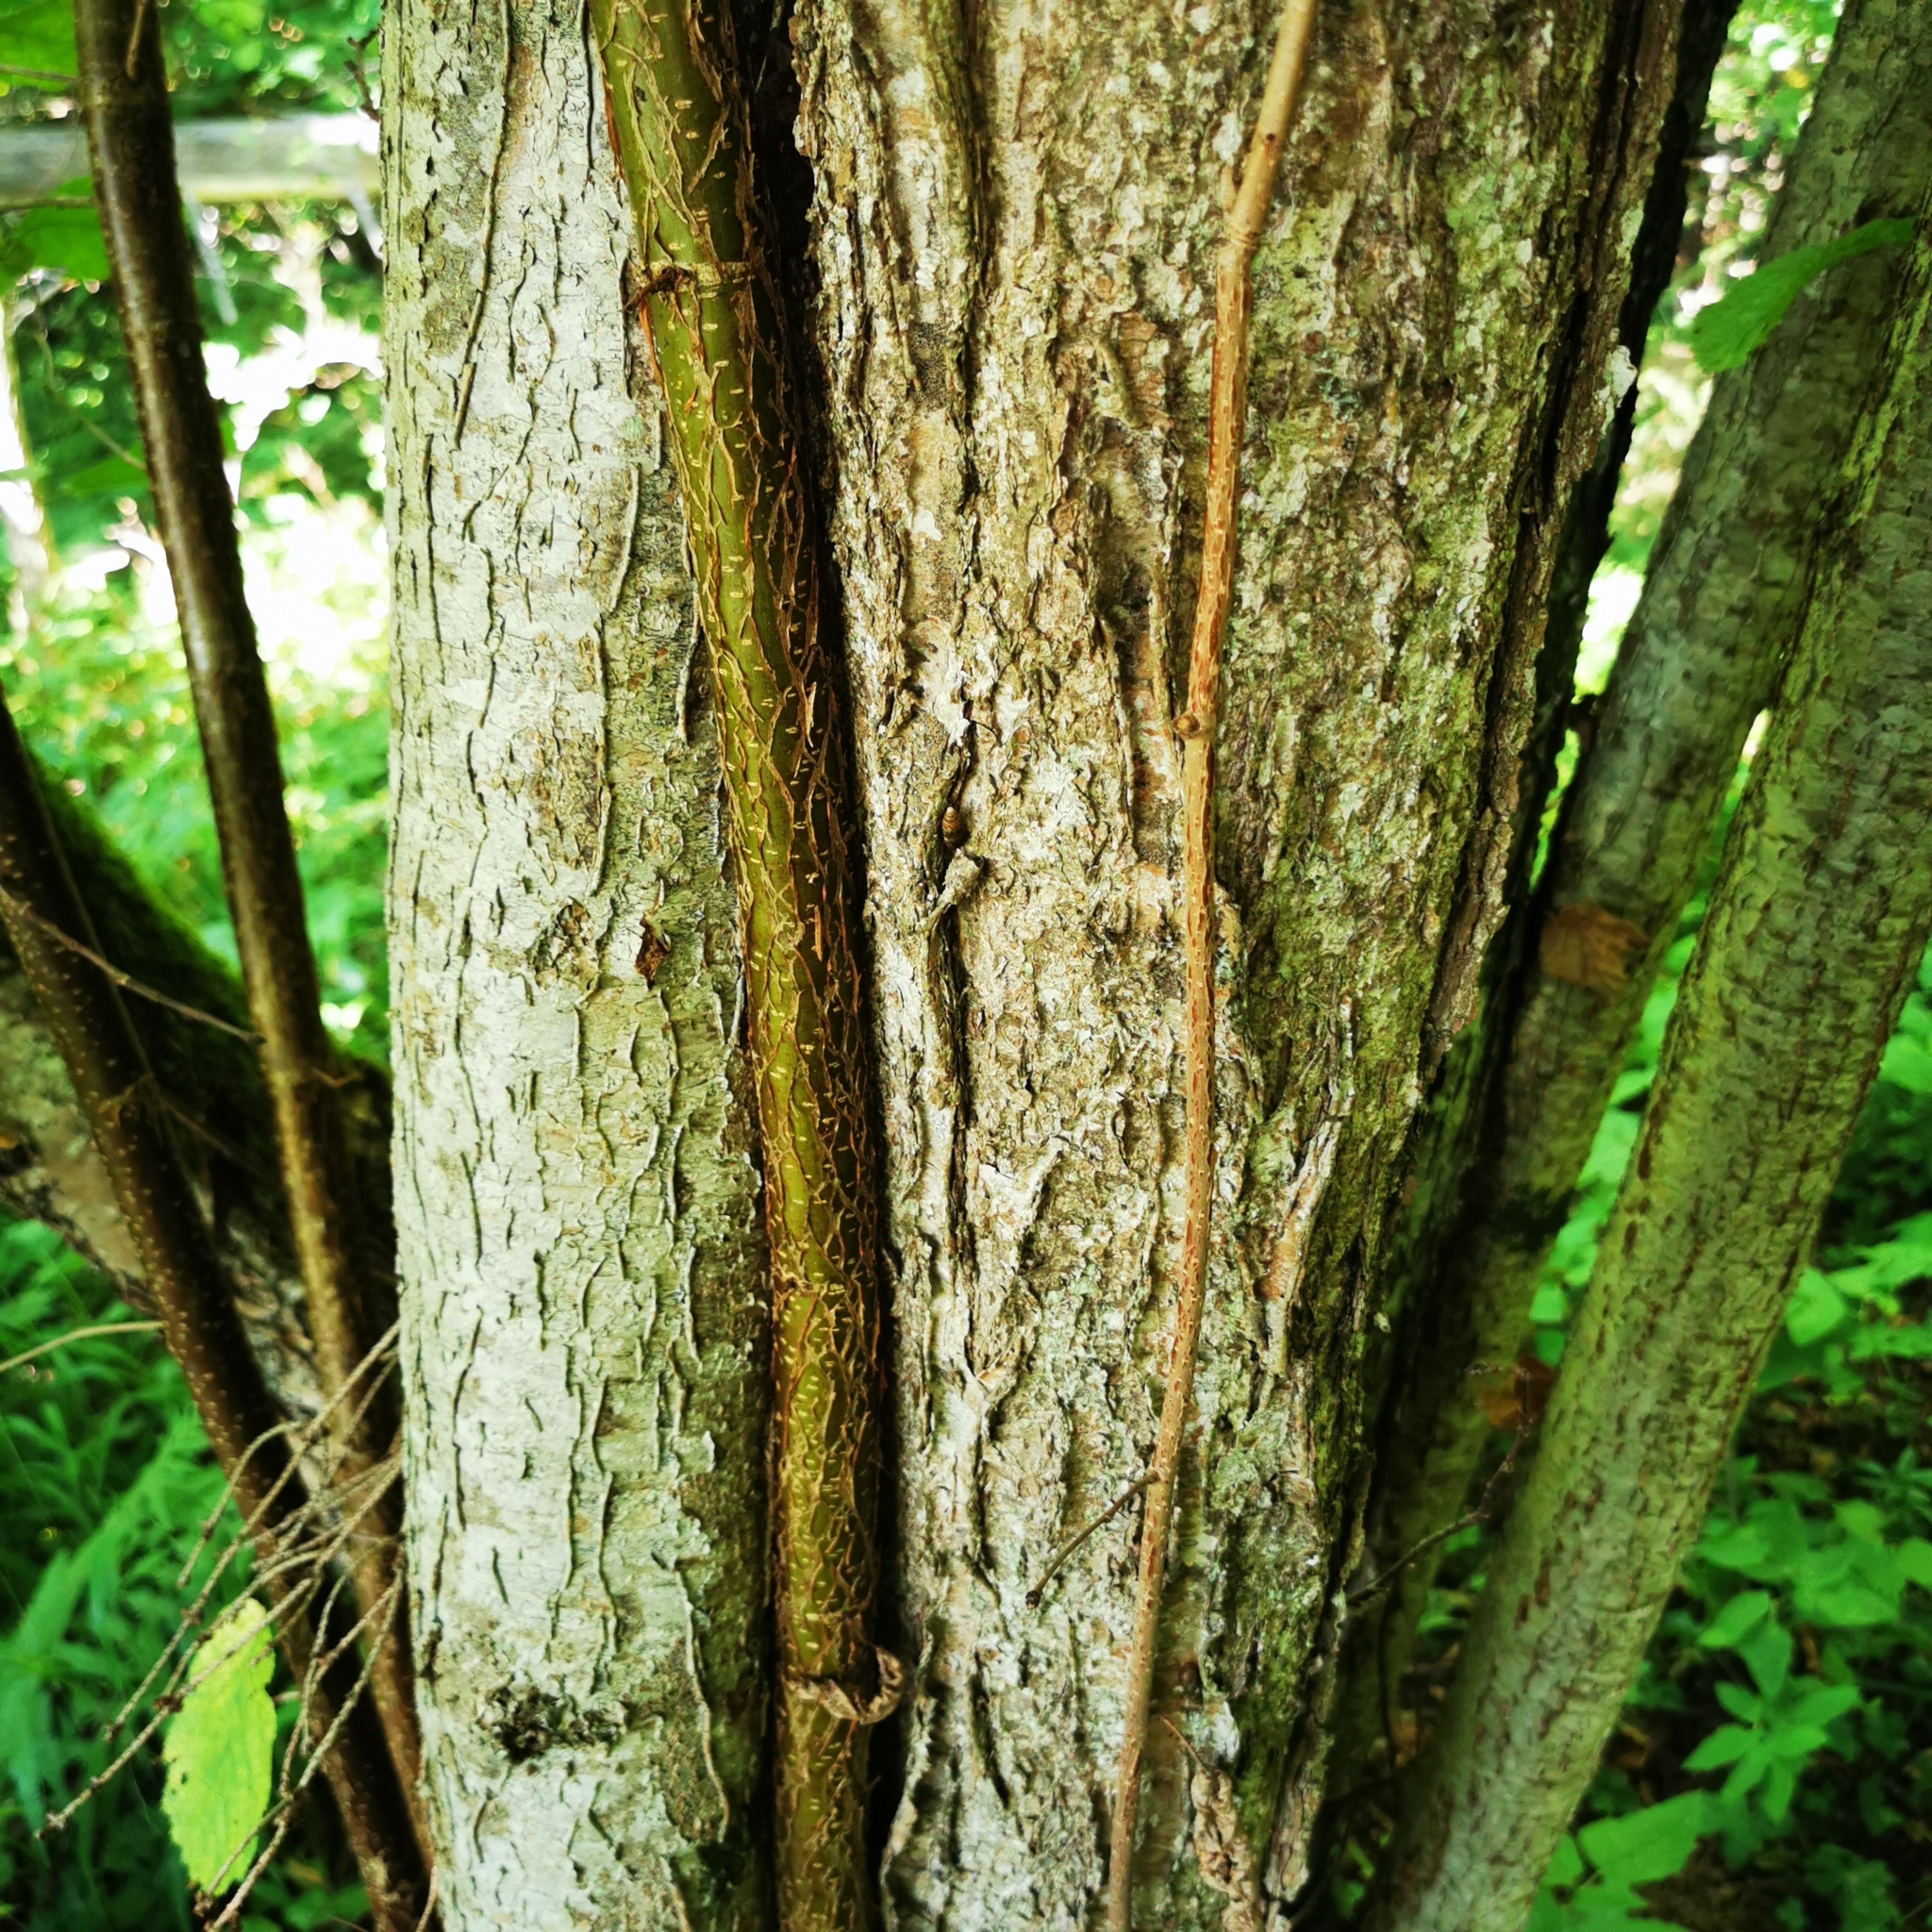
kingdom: Plantae
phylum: Tracheophyta
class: Magnoliopsida
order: Fagales
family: Betulaceae
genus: Corylus
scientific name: Corylus avellana
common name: European hazel
